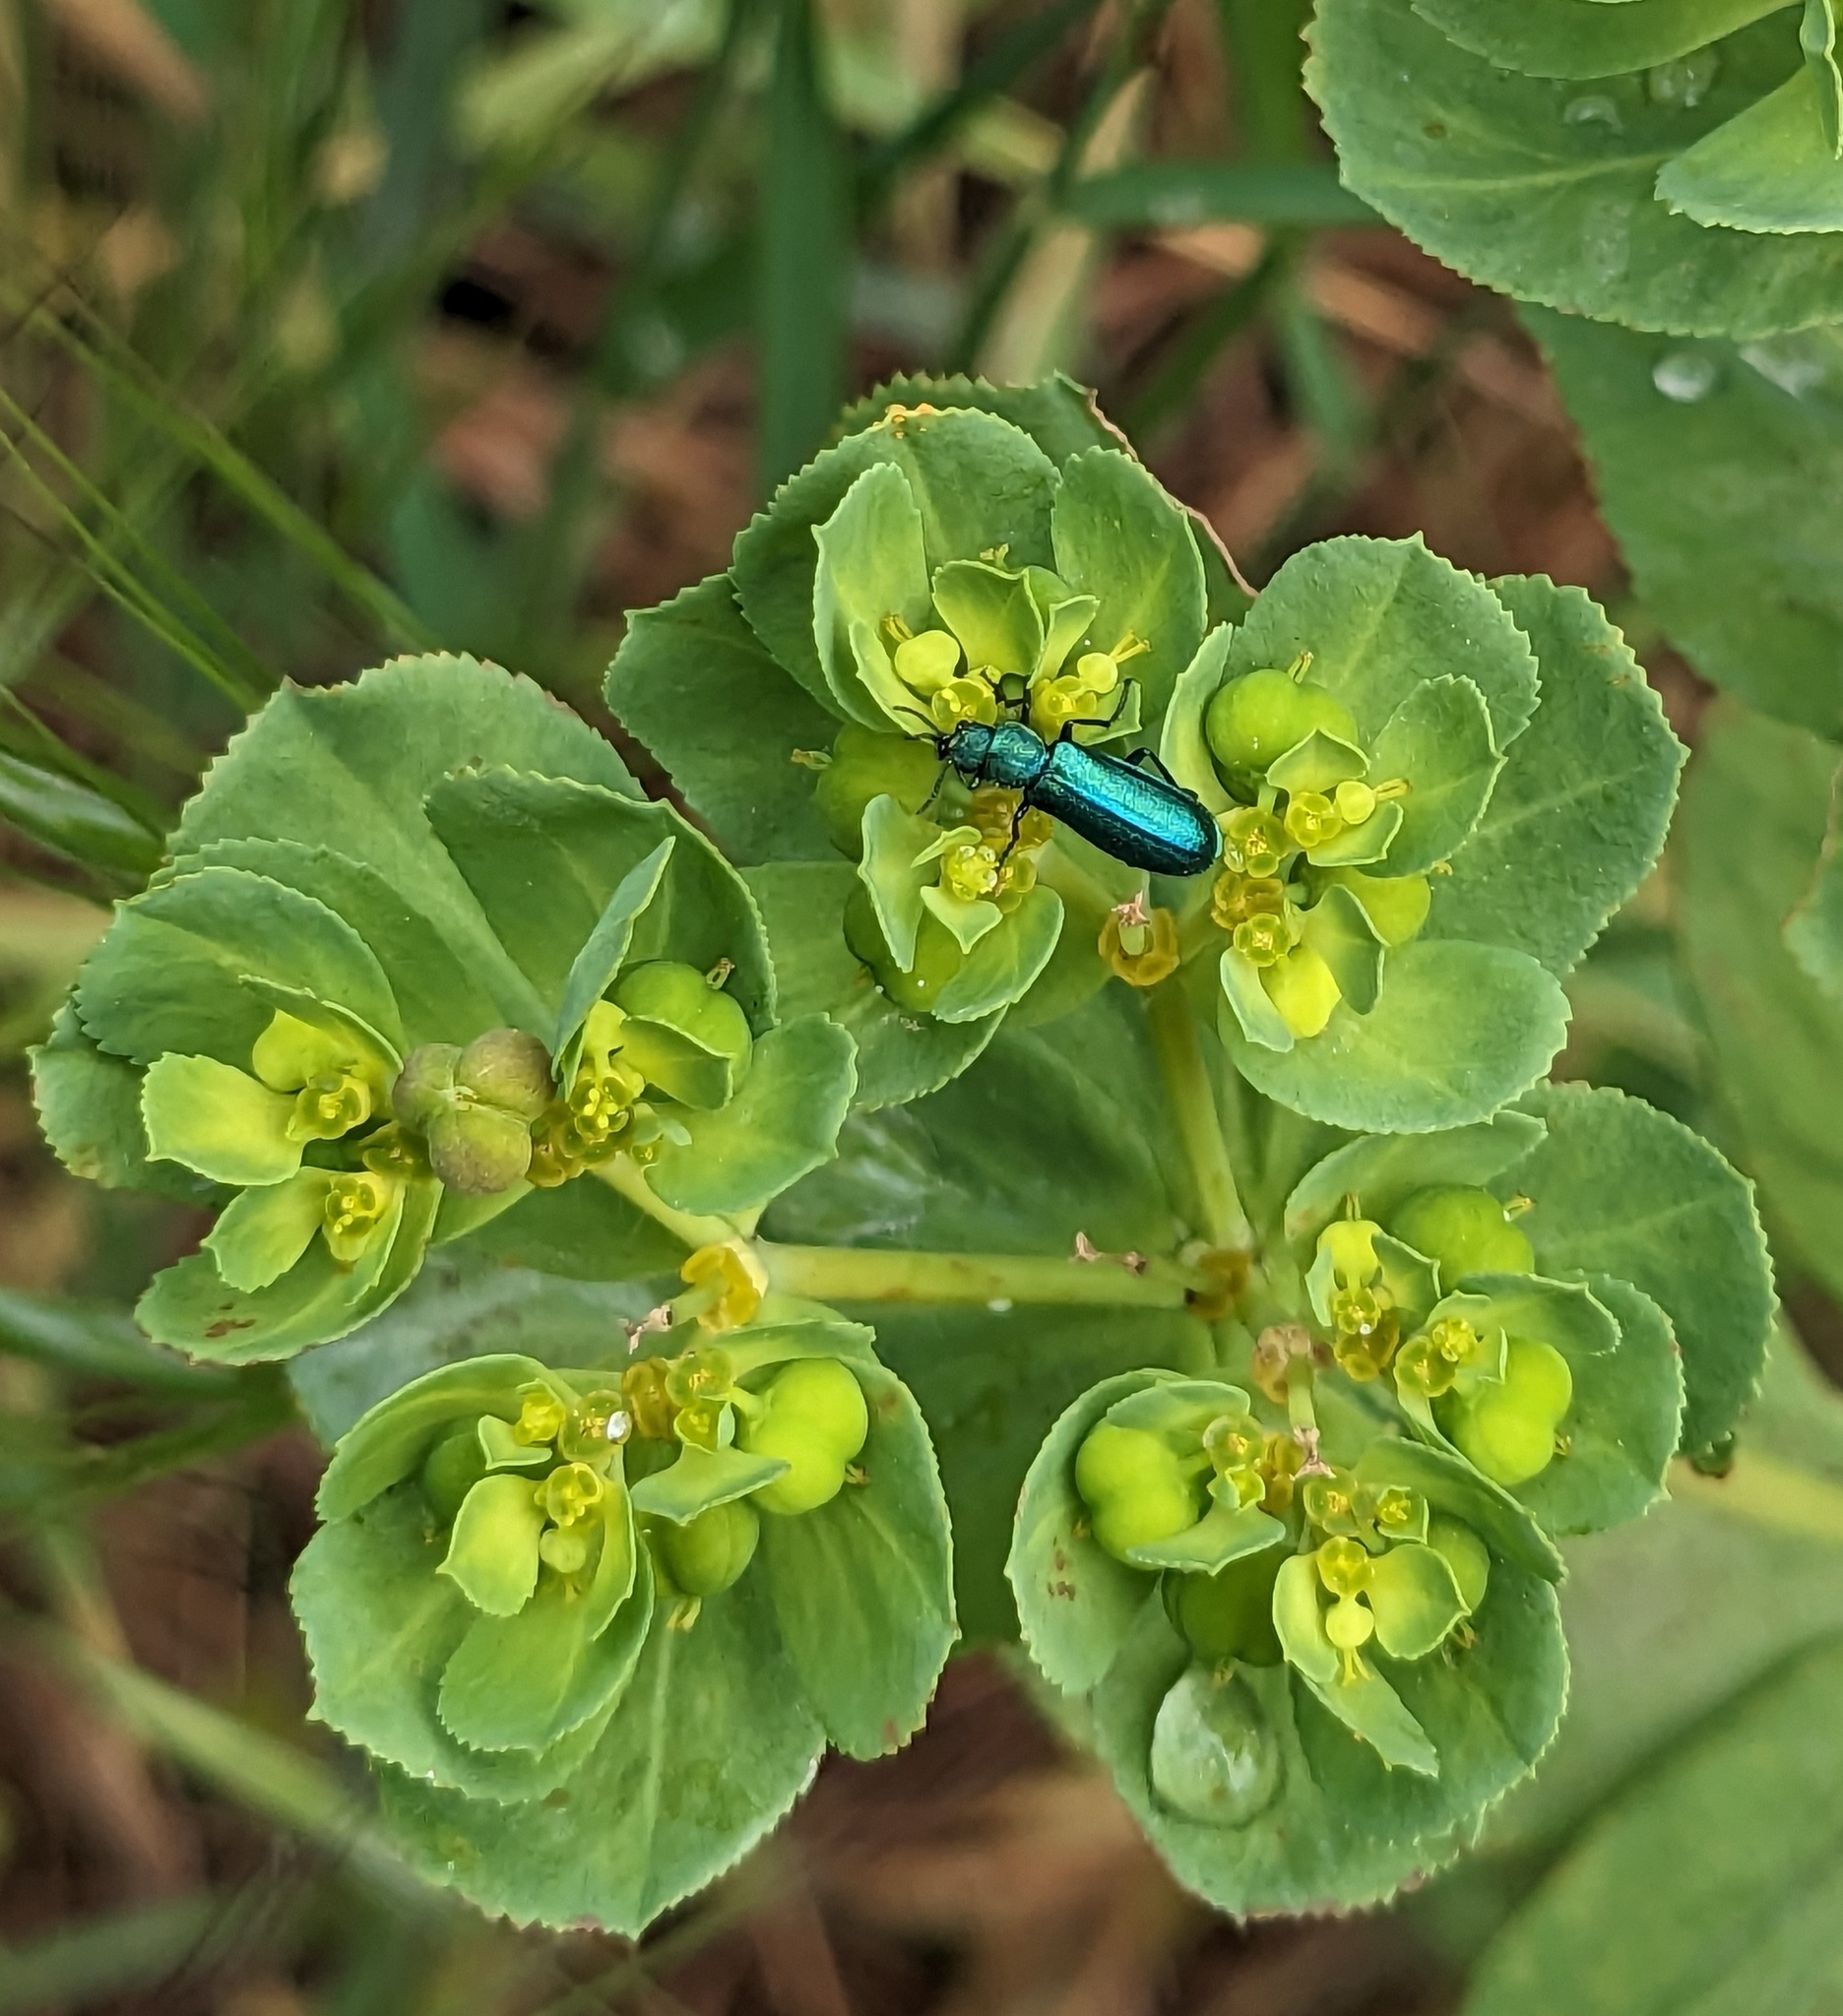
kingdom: Animalia
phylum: Arthropoda
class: Insecta
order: Coleoptera
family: Dasytidae
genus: Psilothrix
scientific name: Psilothrix viridicoerulea
